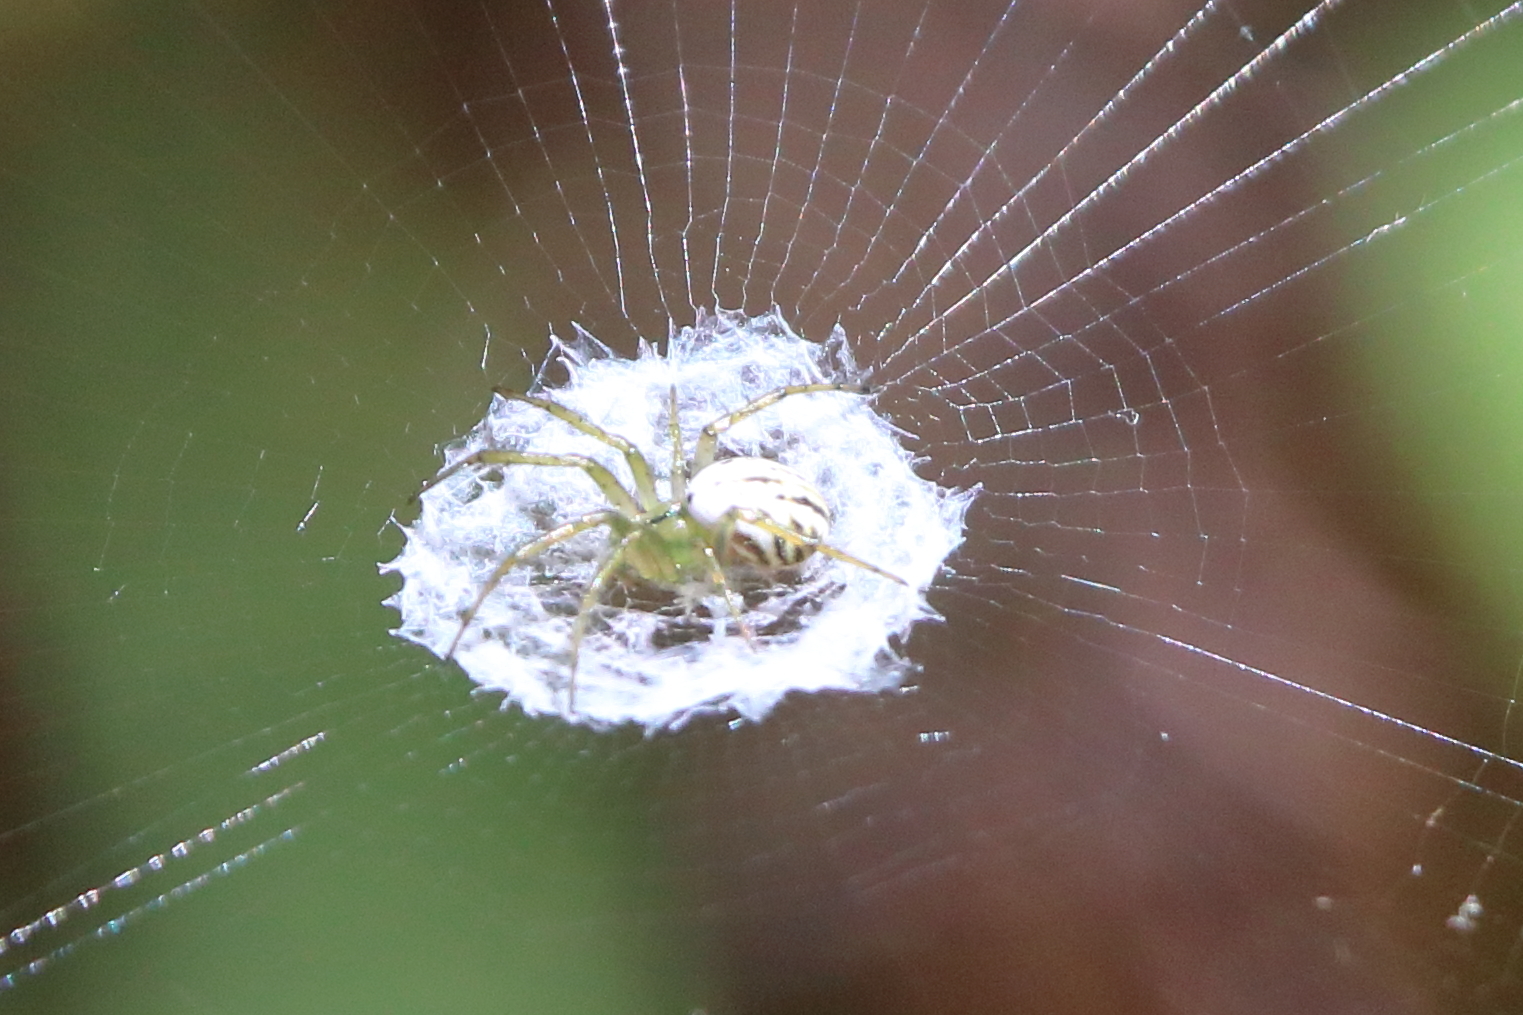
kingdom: Animalia
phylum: Arthropoda
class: Arachnida
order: Araneae
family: Araneidae
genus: Mangora
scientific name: Mangora gibberosa
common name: Lined orbweaver
